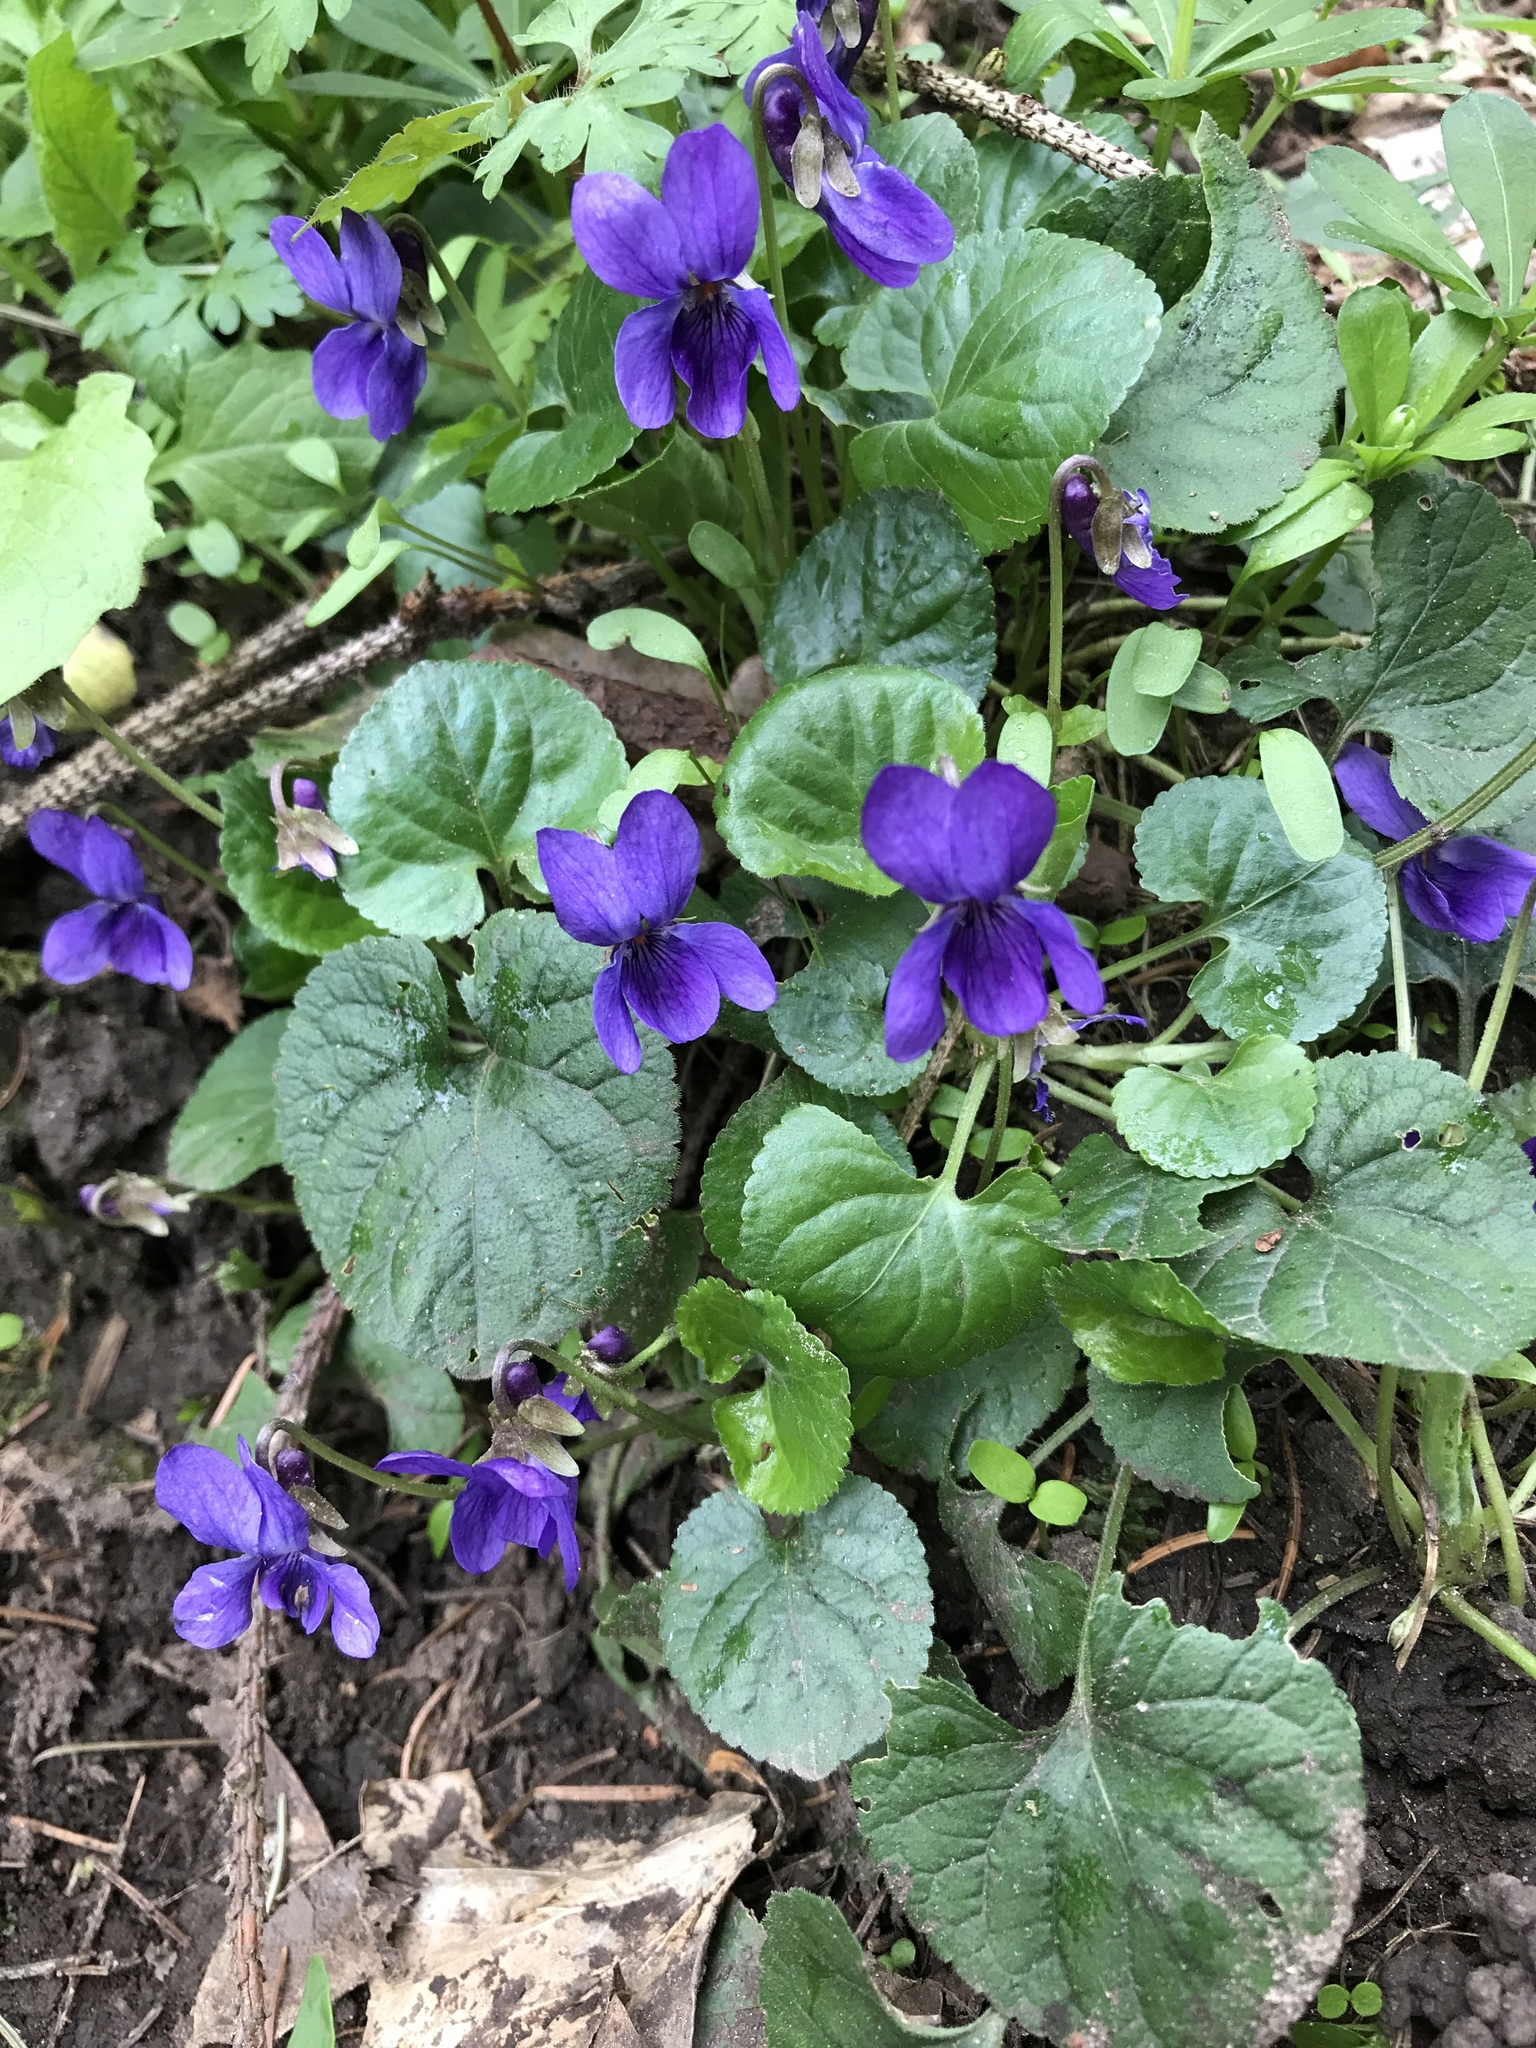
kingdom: Plantae
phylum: Tracheophyta
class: Magnoliopsida
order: Malpighiales
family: Violaceae
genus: Viola
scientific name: Viola odorata
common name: Sweet violet
